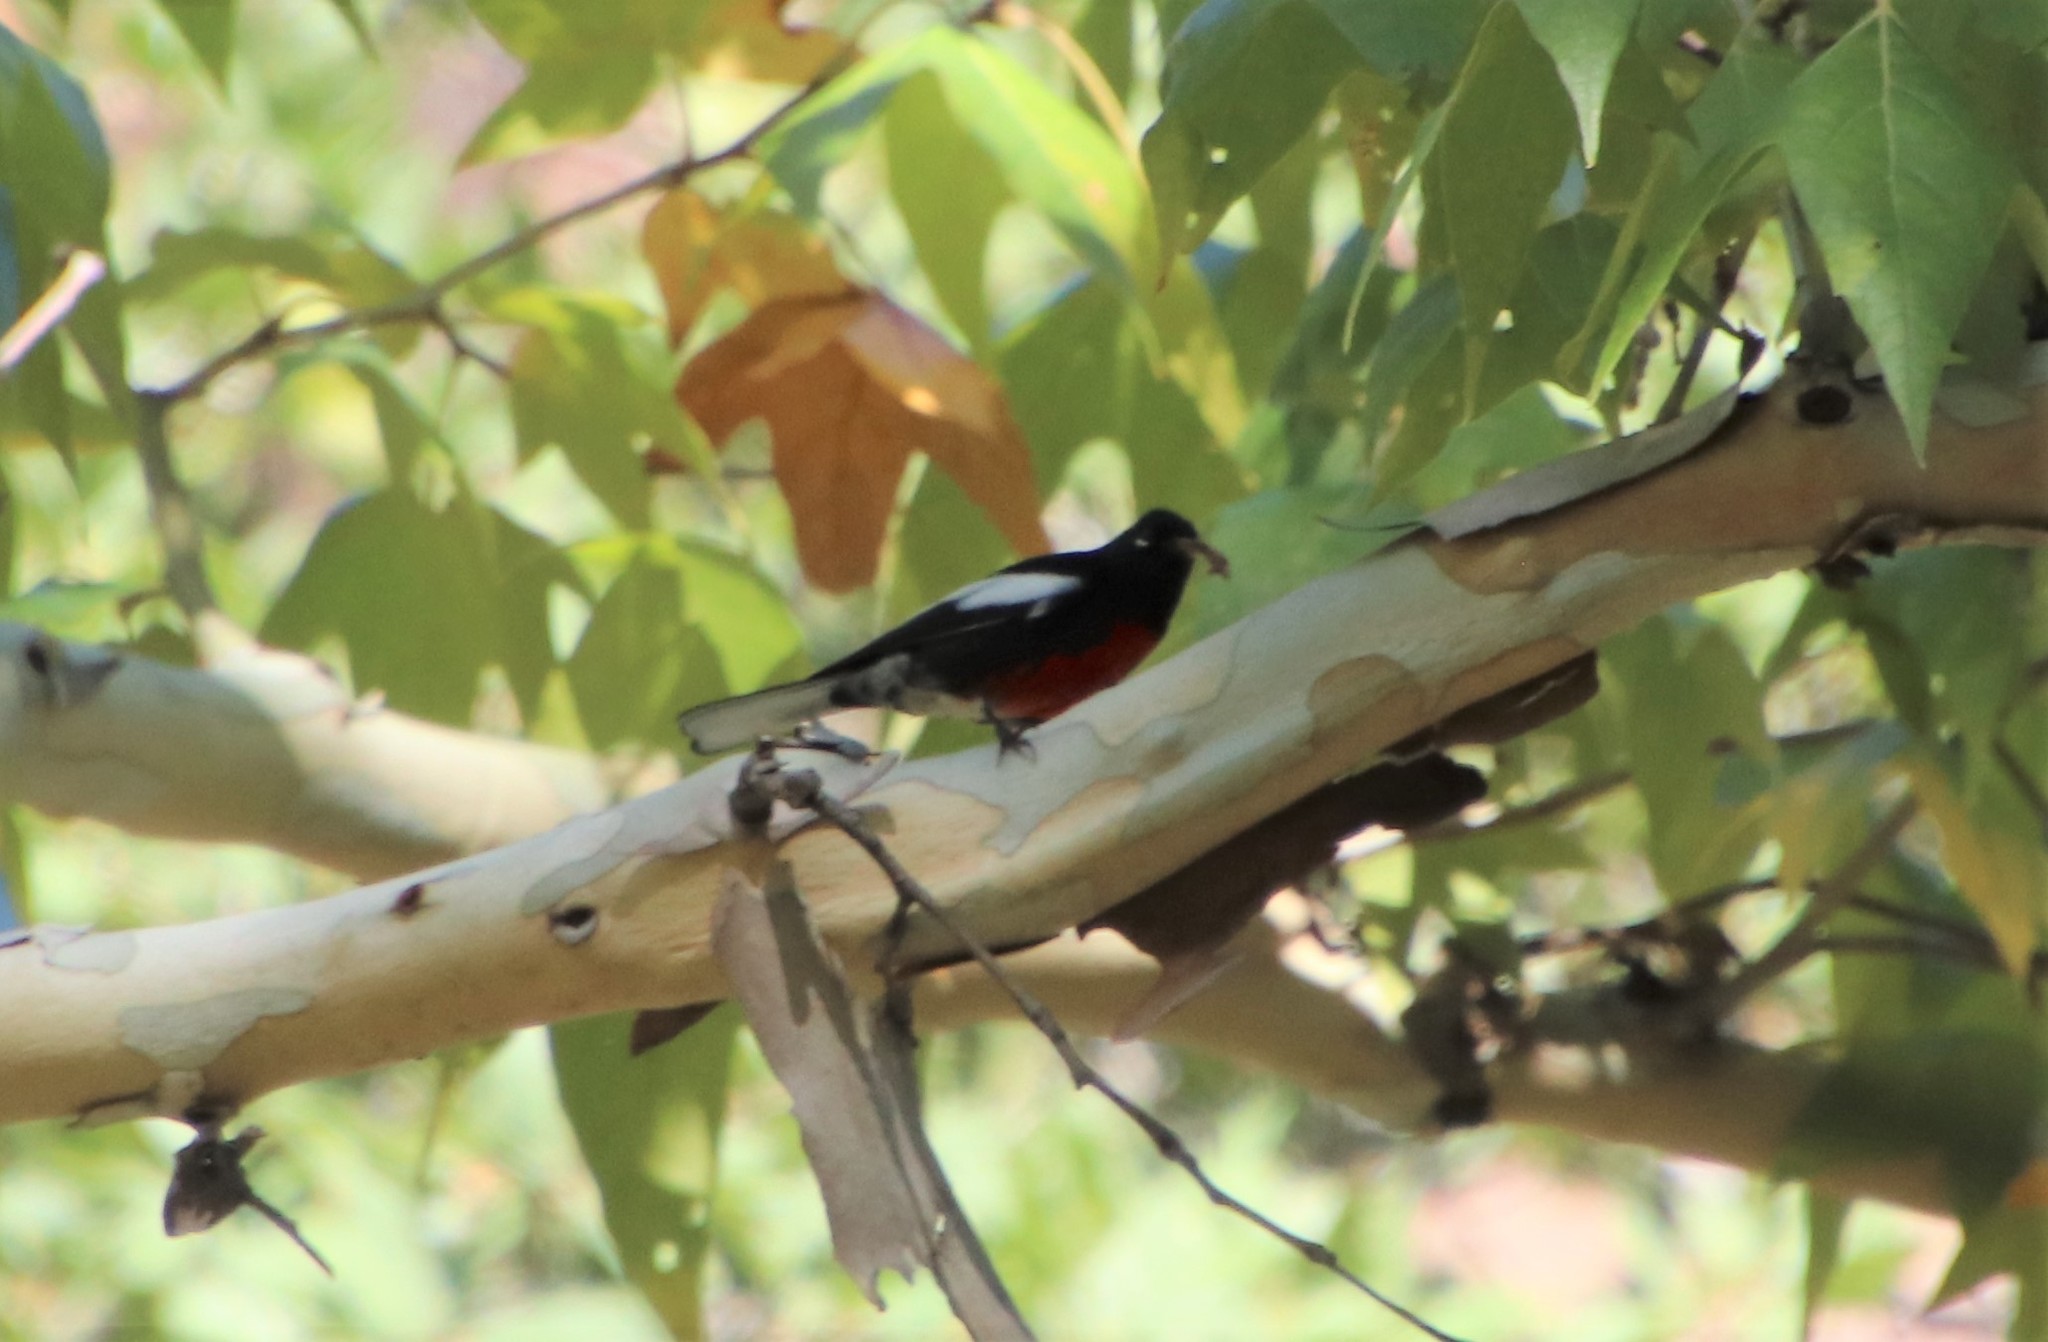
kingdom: Animalia
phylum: Chordata
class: Aves
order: Passeriformes
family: Parulidae
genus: Myioborus
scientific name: Myioborus pictus
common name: Painted whitestart
